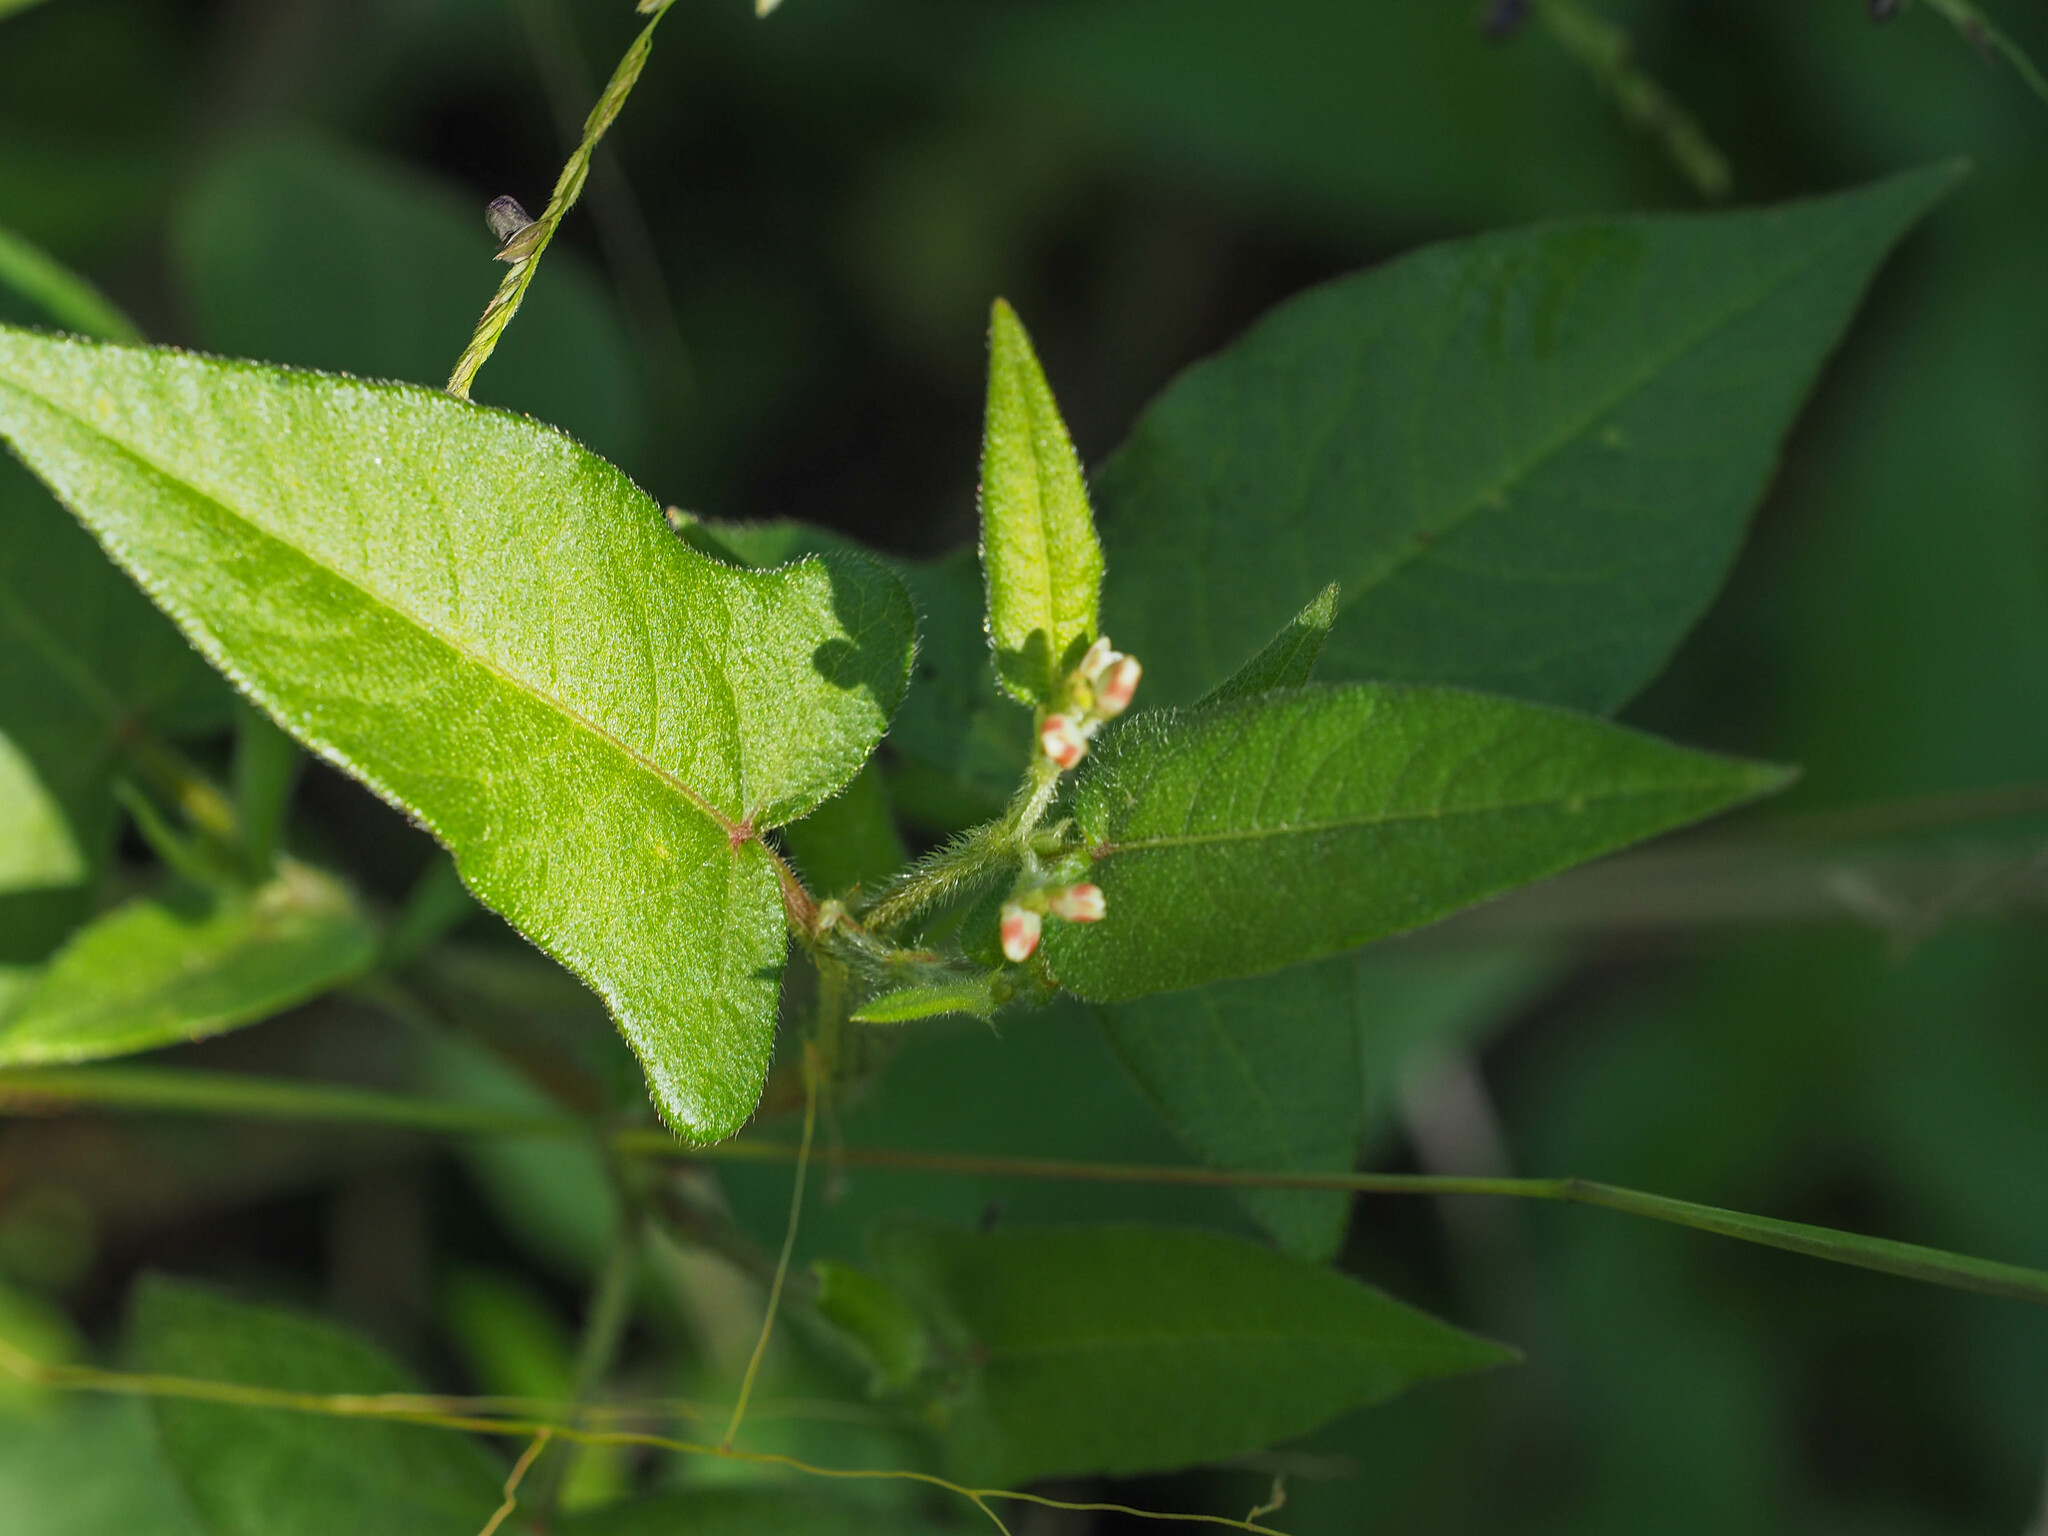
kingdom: Plantae
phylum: Tracheophyta
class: Magnoliopsida
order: Caryophyllales
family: Polygonaceae
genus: Persicaria
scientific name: Persicaria arifolia
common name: Halberd-leaved tear-thumb
